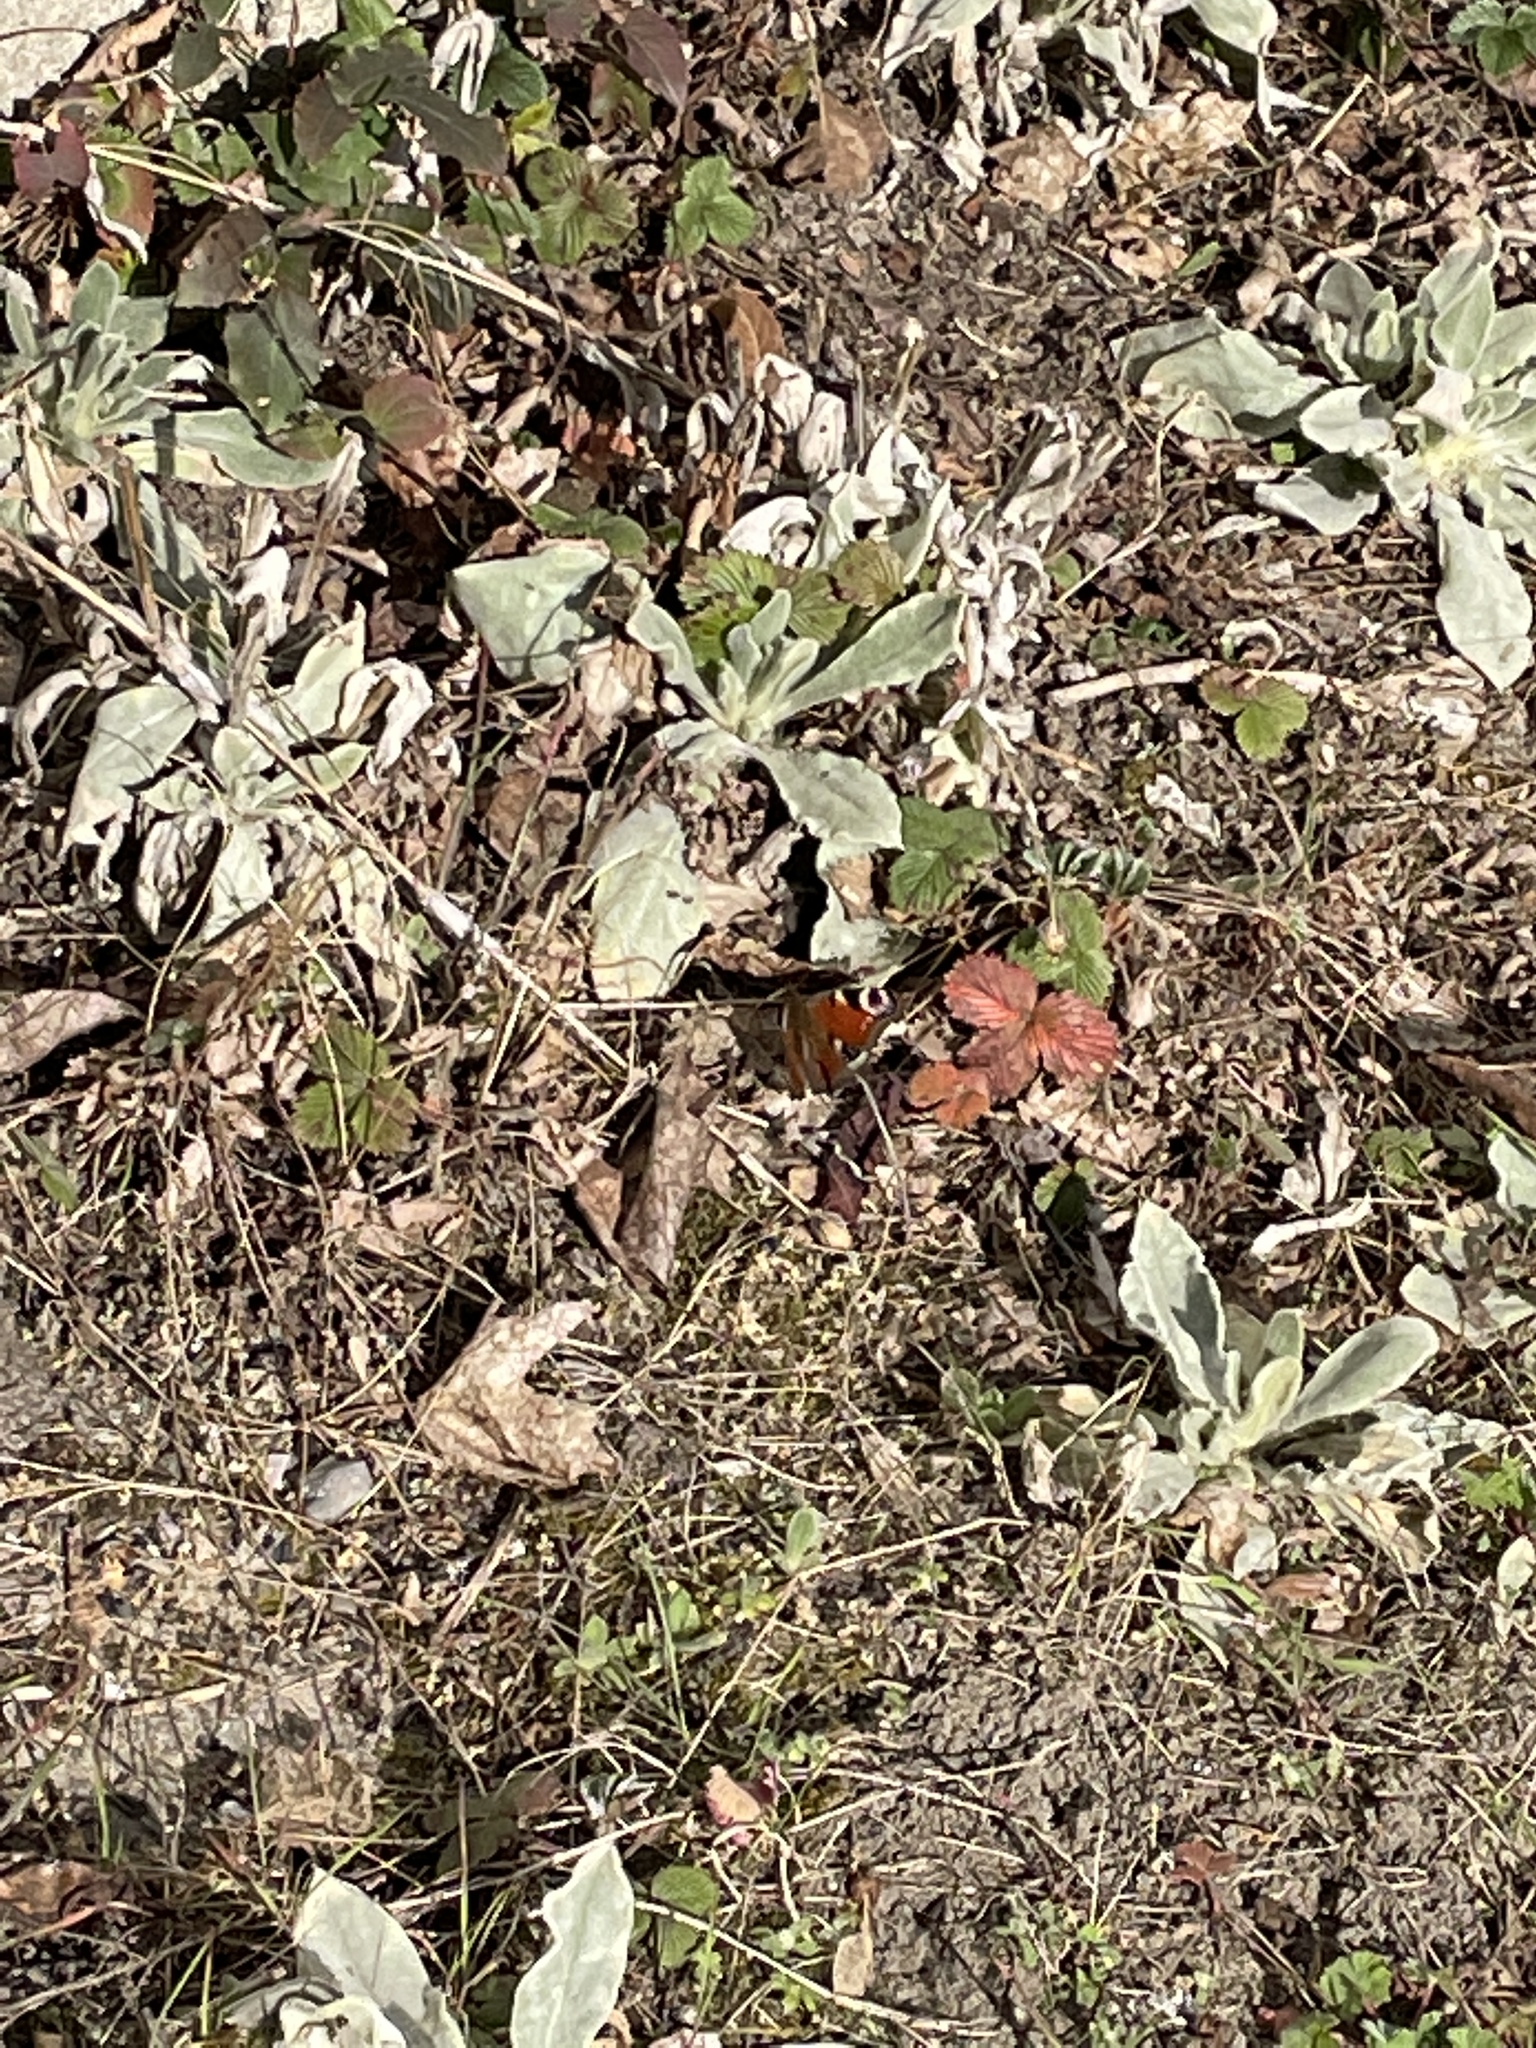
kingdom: Animalia
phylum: Arthropoda
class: Insecta
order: Lepidoptera
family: Nymphalidae
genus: Aglais
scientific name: Aglais io
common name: Peacock
